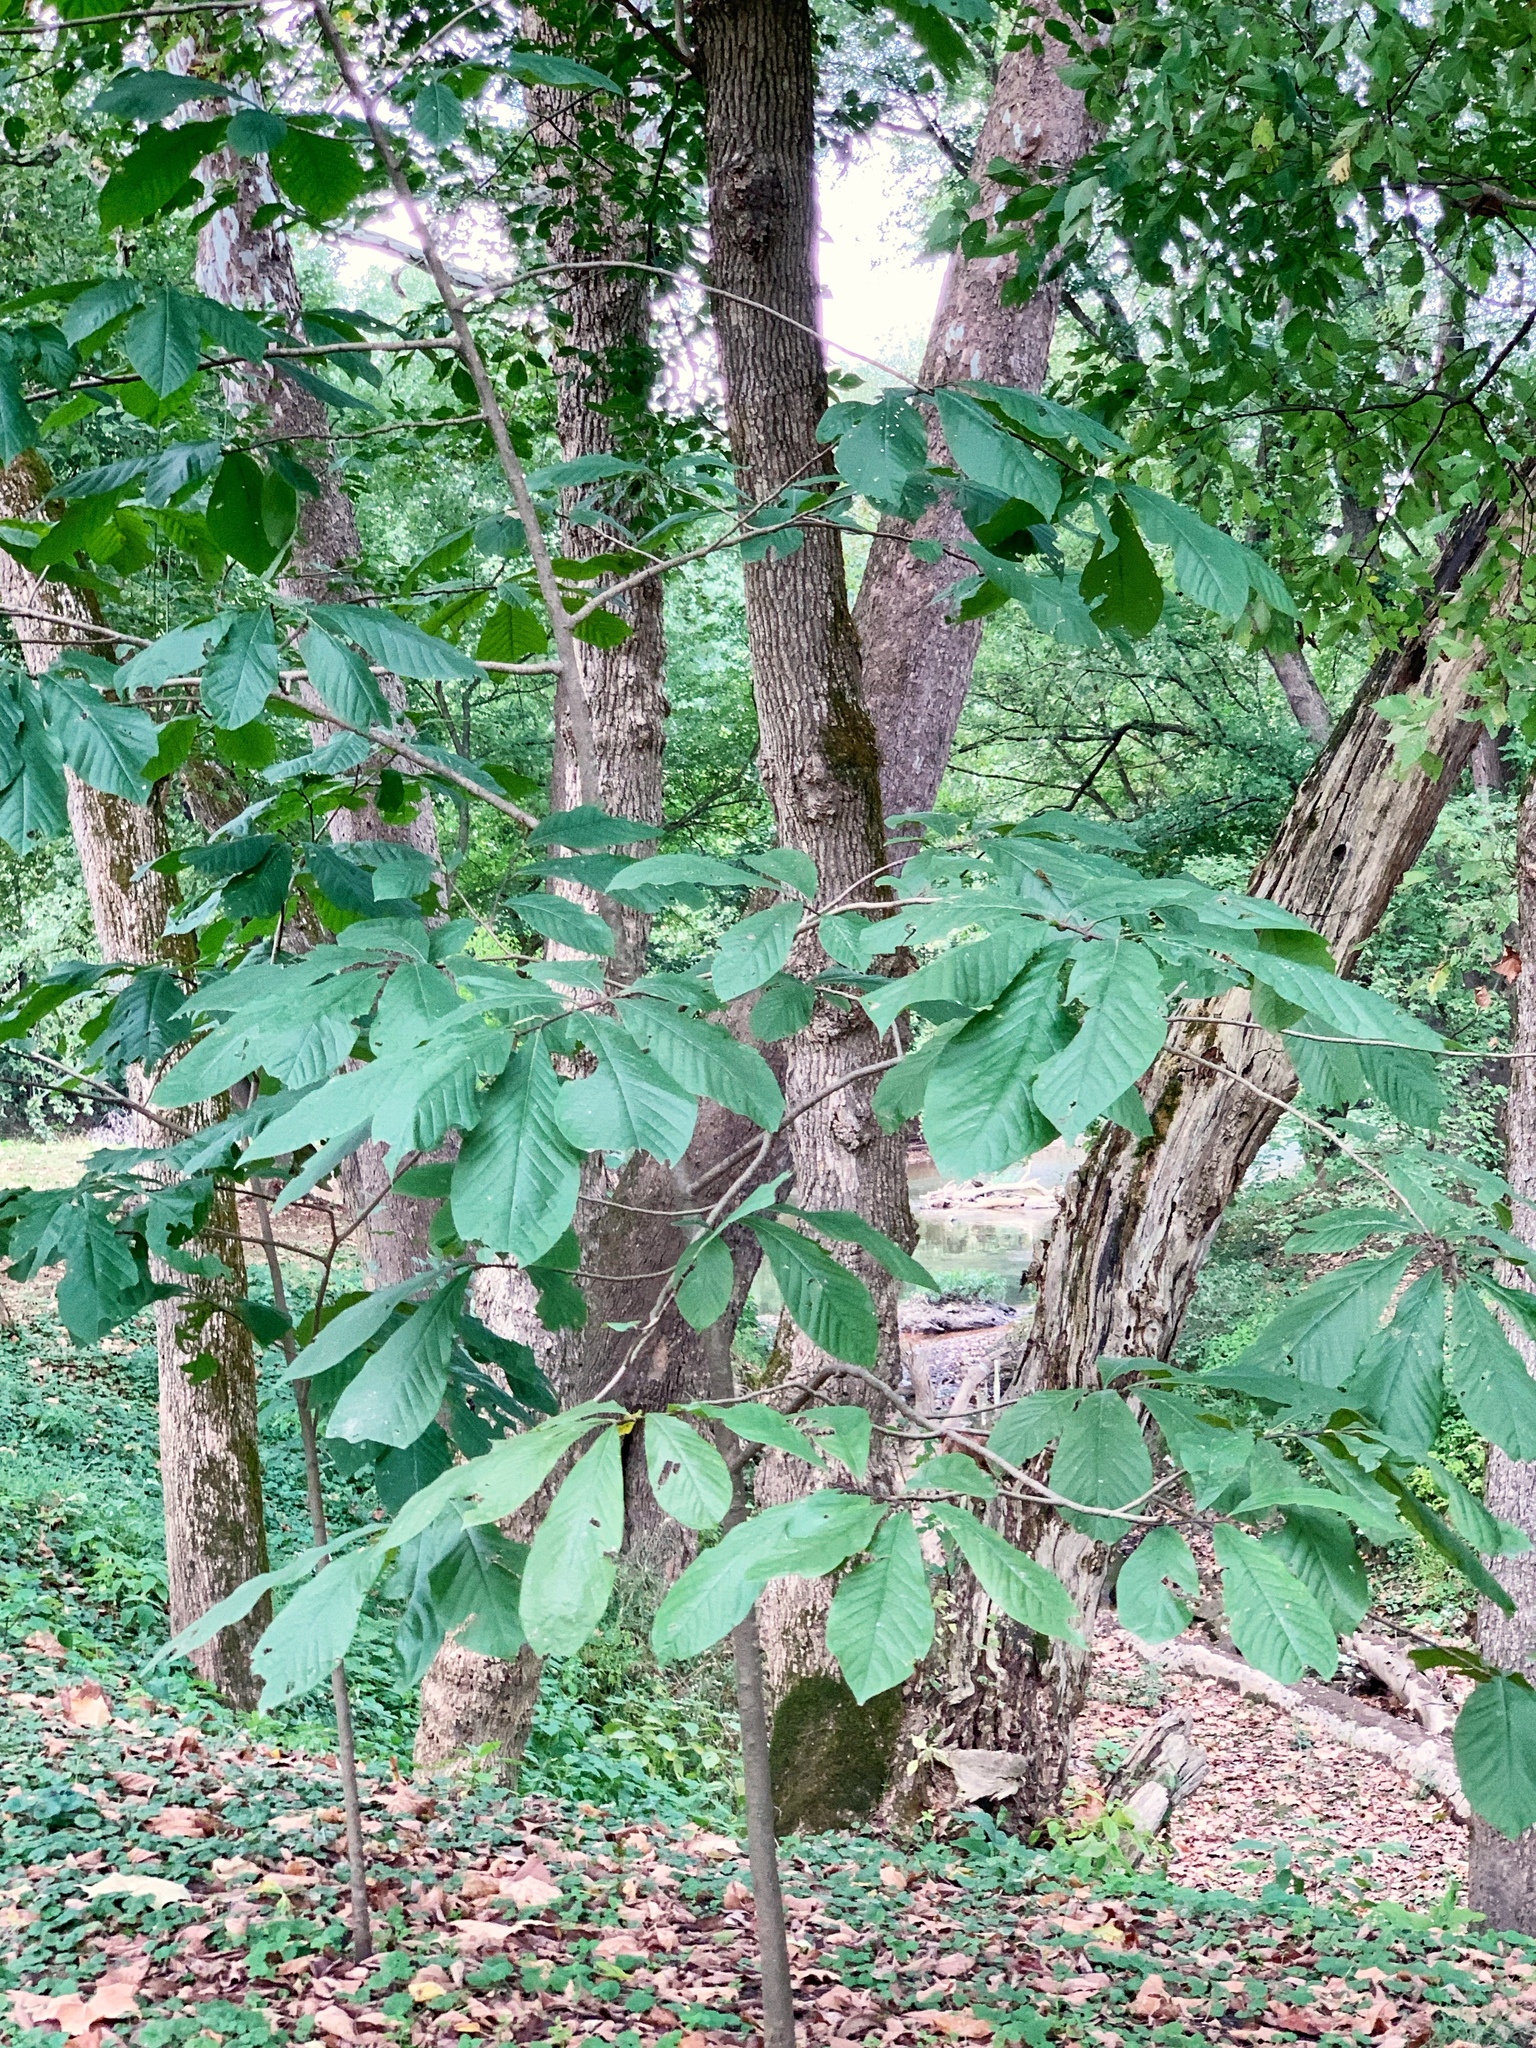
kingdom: Plantae
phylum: Tracheophyta
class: Magnoliopsida
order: Magnoliales
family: Annonaceae
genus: Asimina
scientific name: Asimina triloba
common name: Dog-banana
